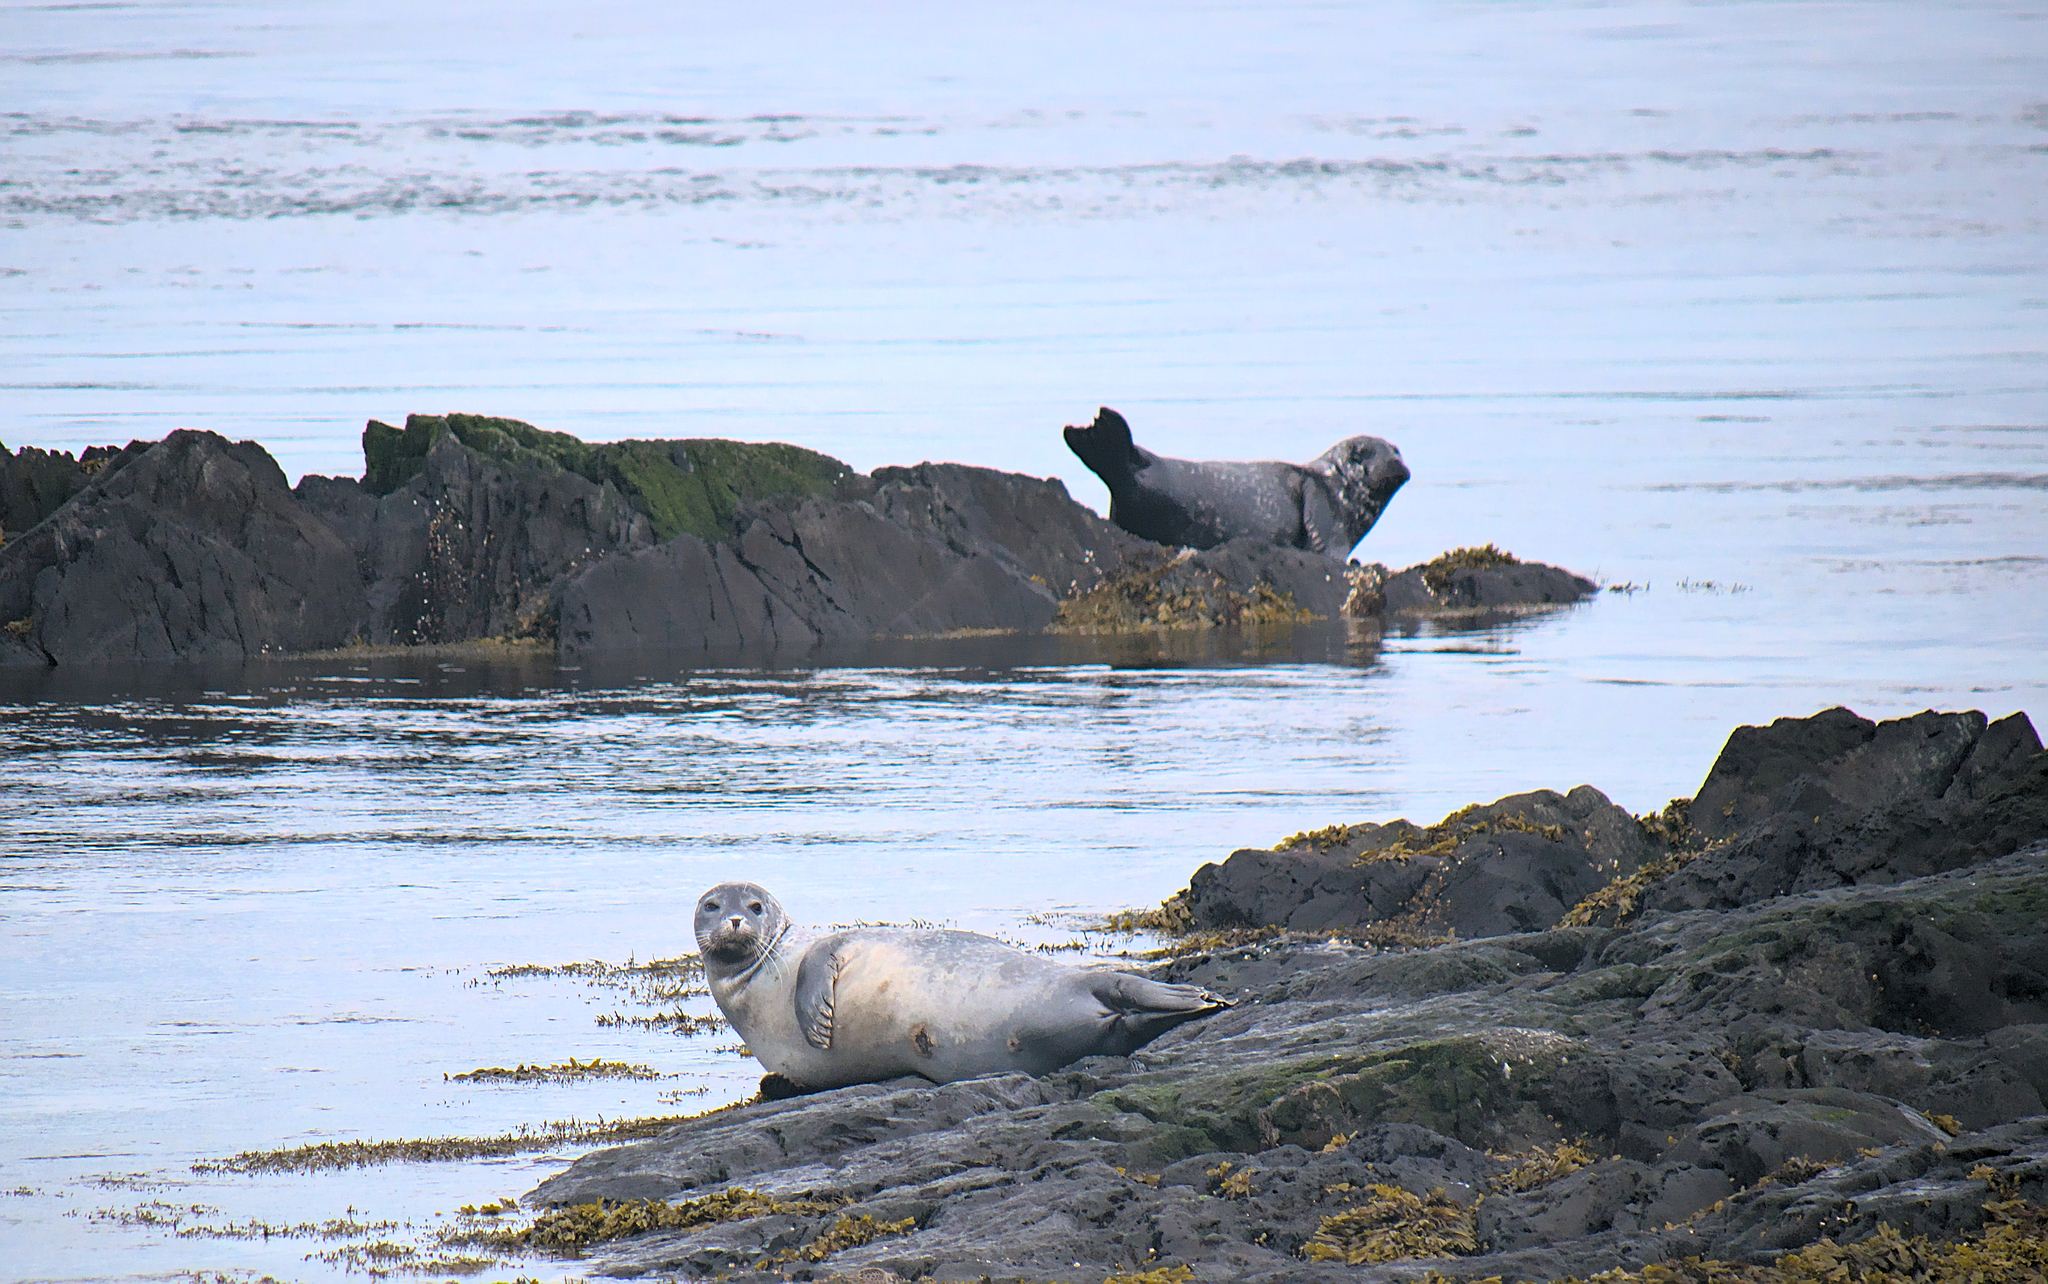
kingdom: Animalia
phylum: Chordata
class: Mammalia
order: Carnivora
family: Phocidae
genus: Phoca
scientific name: Phoca vitulina
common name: Harbor seal
